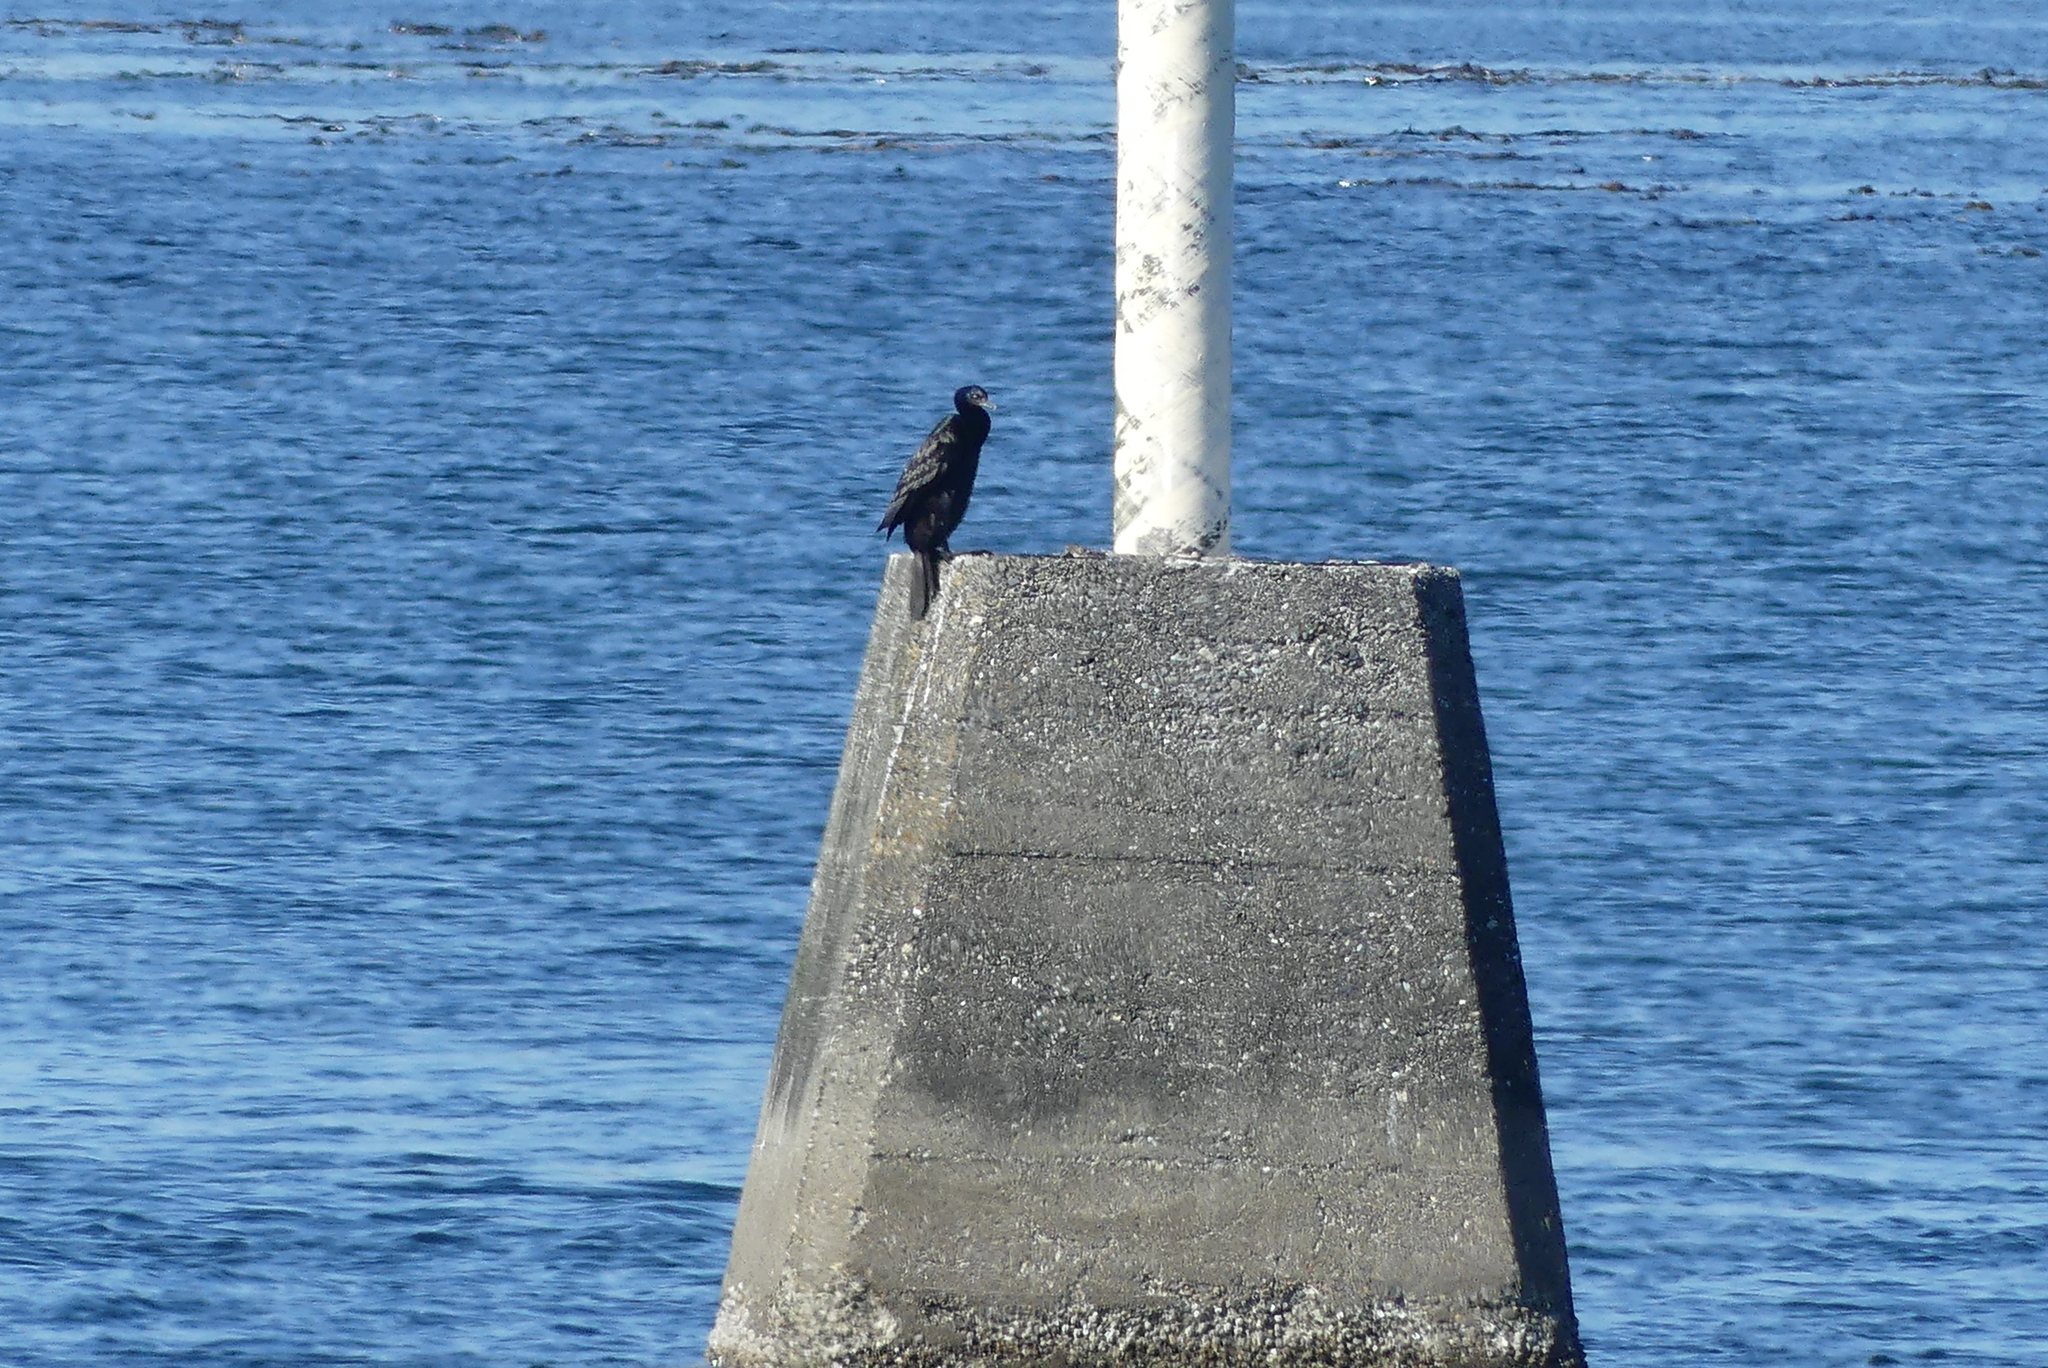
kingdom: Animalia
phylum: Chordata
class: Aves
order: Suliformes
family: Phalacrocoracidae
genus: Phalacrocorax
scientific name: Phalacrocorax pelagicus
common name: Pelagic cormorant
